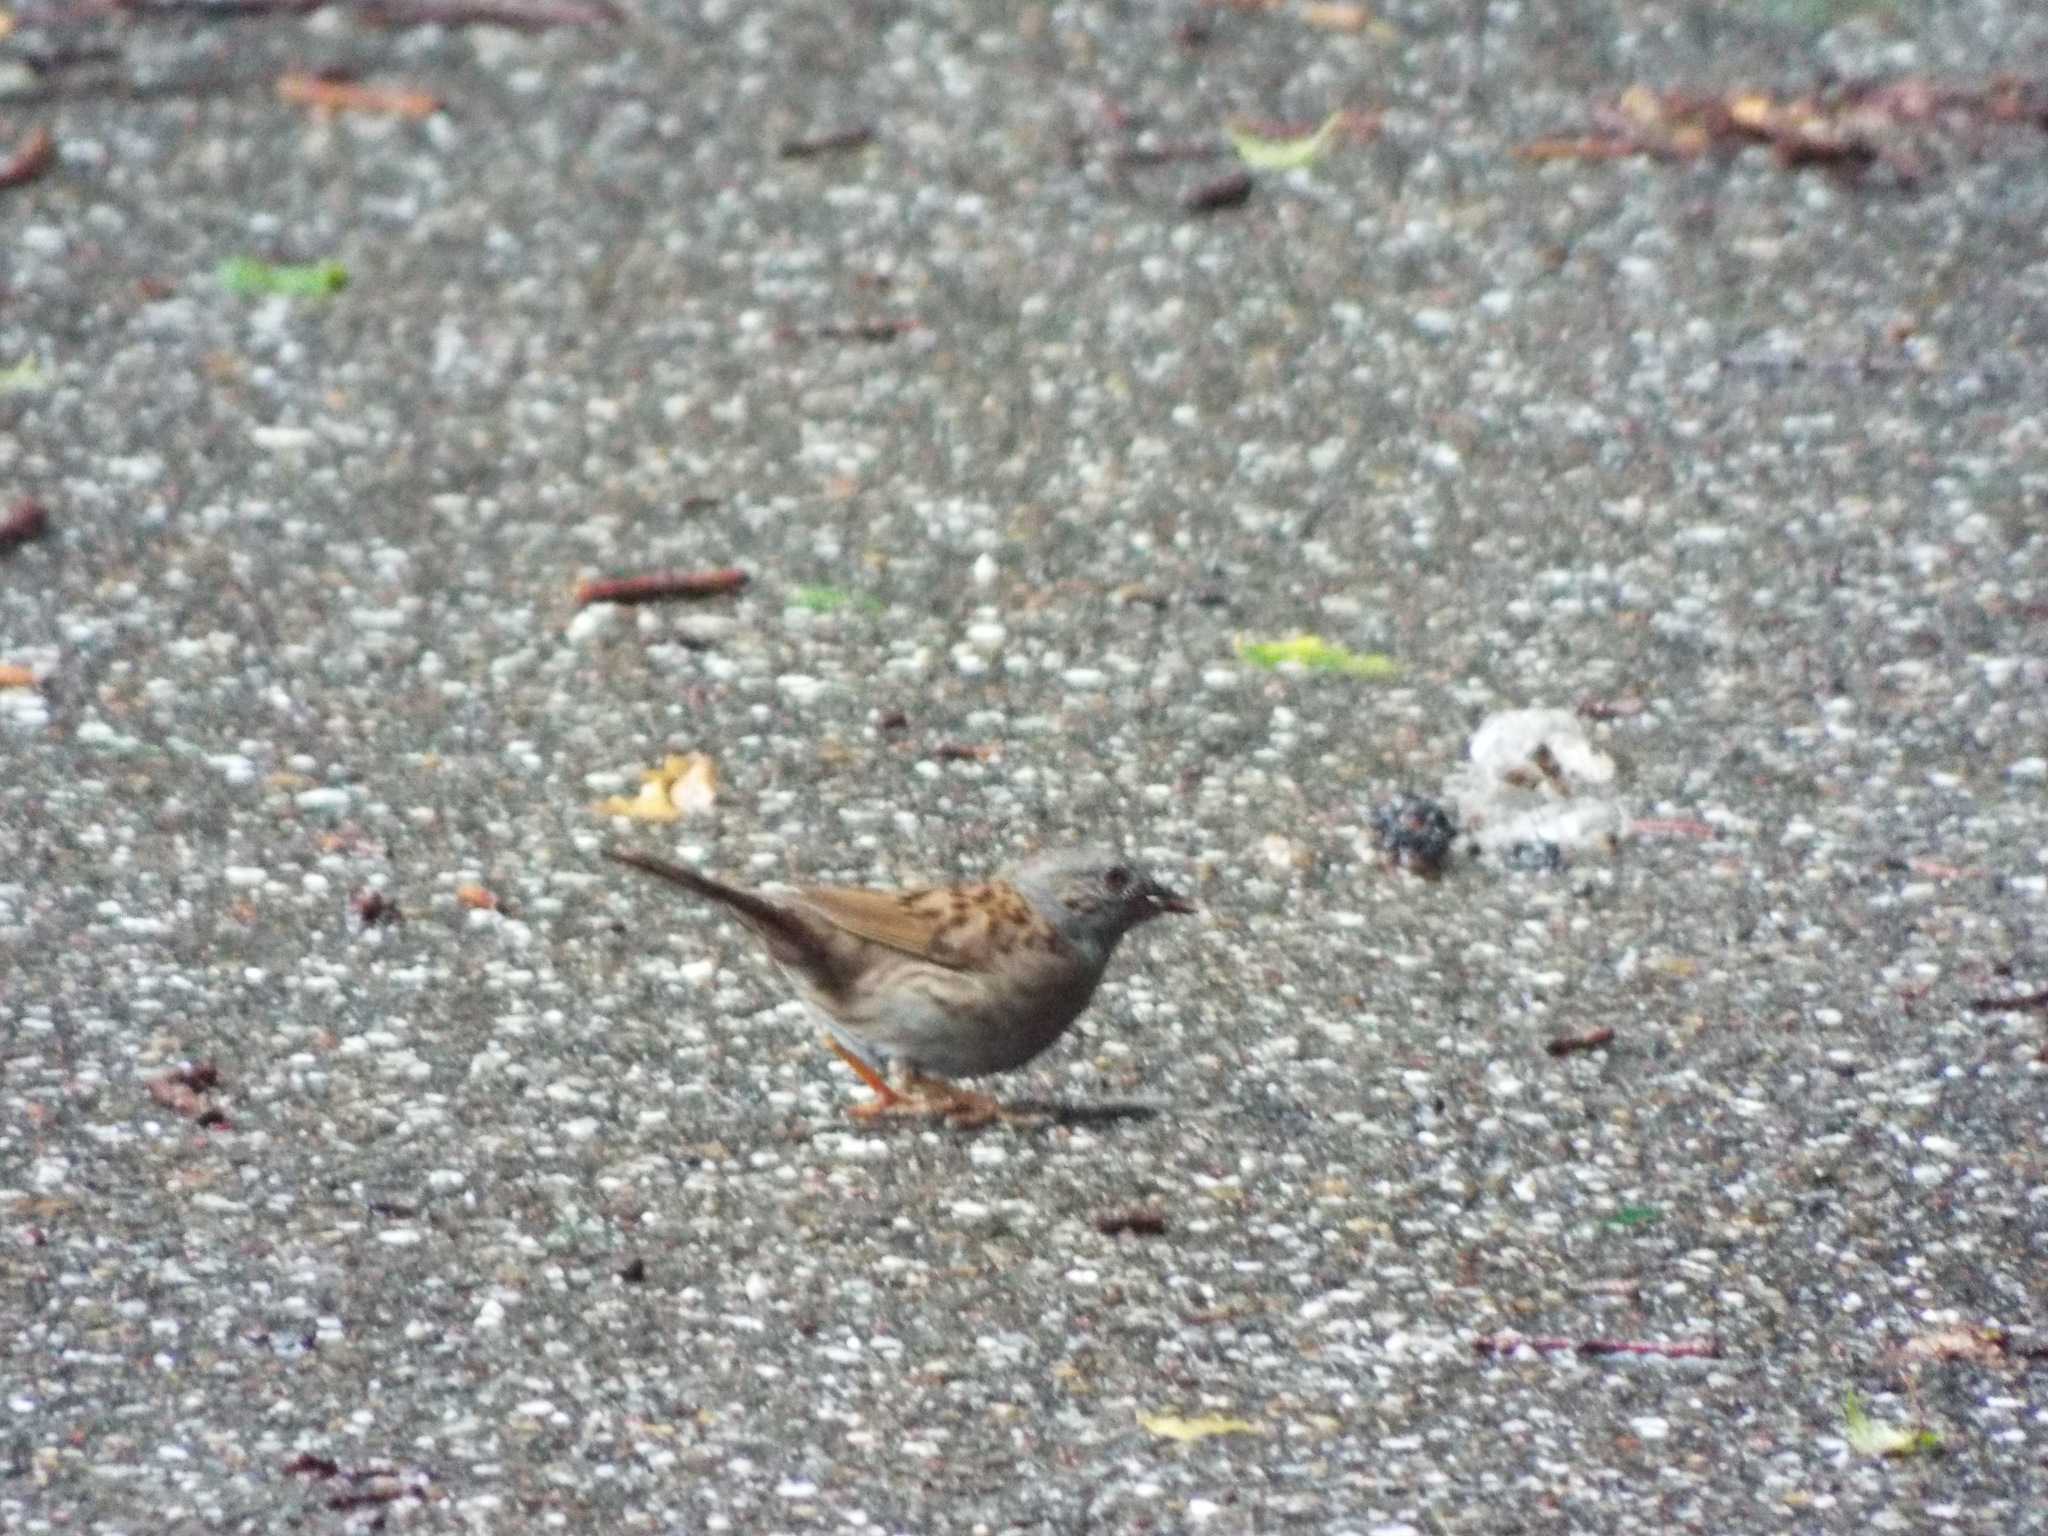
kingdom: Animalia
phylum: Chordata
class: Aves
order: Passeriformes
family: Prunellidae
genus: Prunella
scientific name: Prunella modularis
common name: Dunnock
